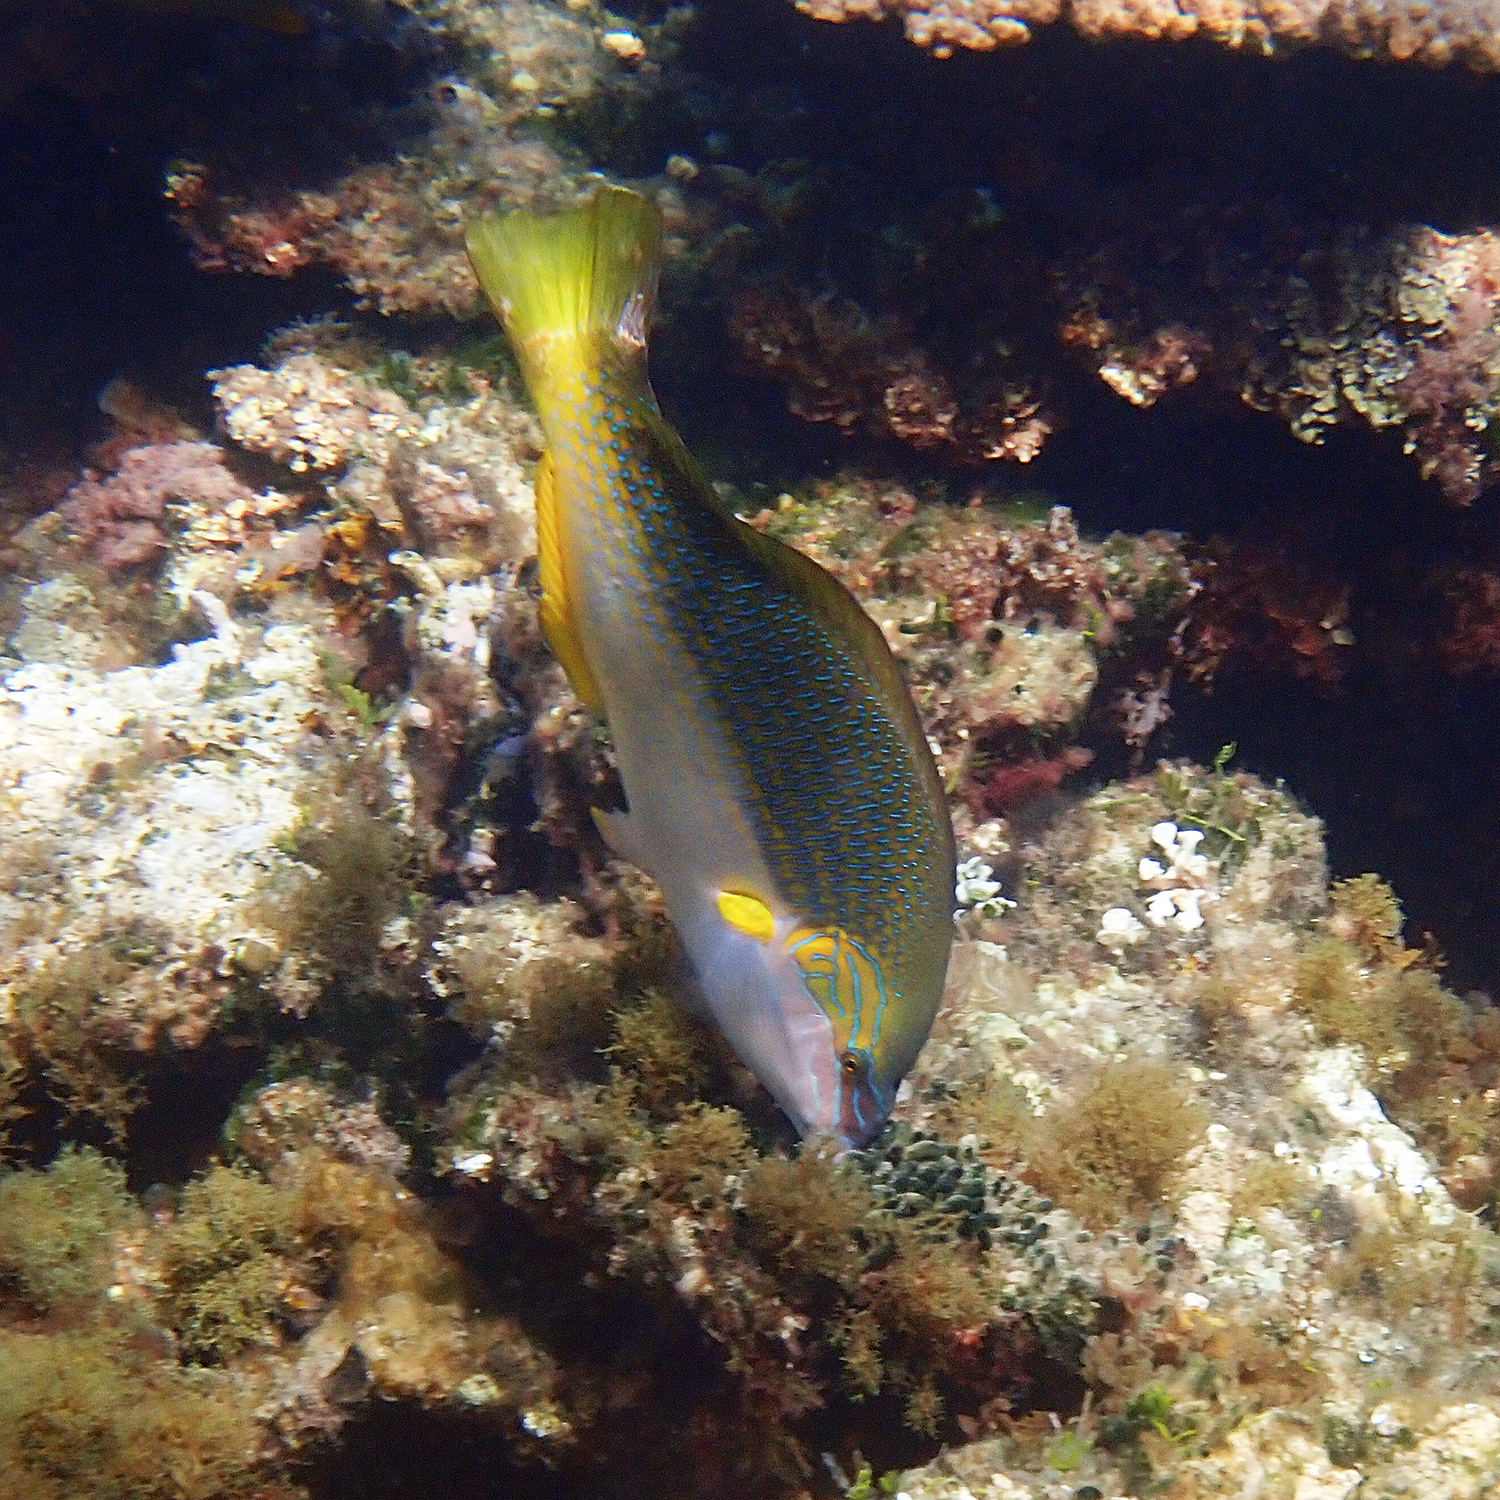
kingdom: Animalia
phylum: Chordata
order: Perciformes
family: Labridae
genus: Anampses
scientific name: Anampses elegans
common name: Elegant wrasse
